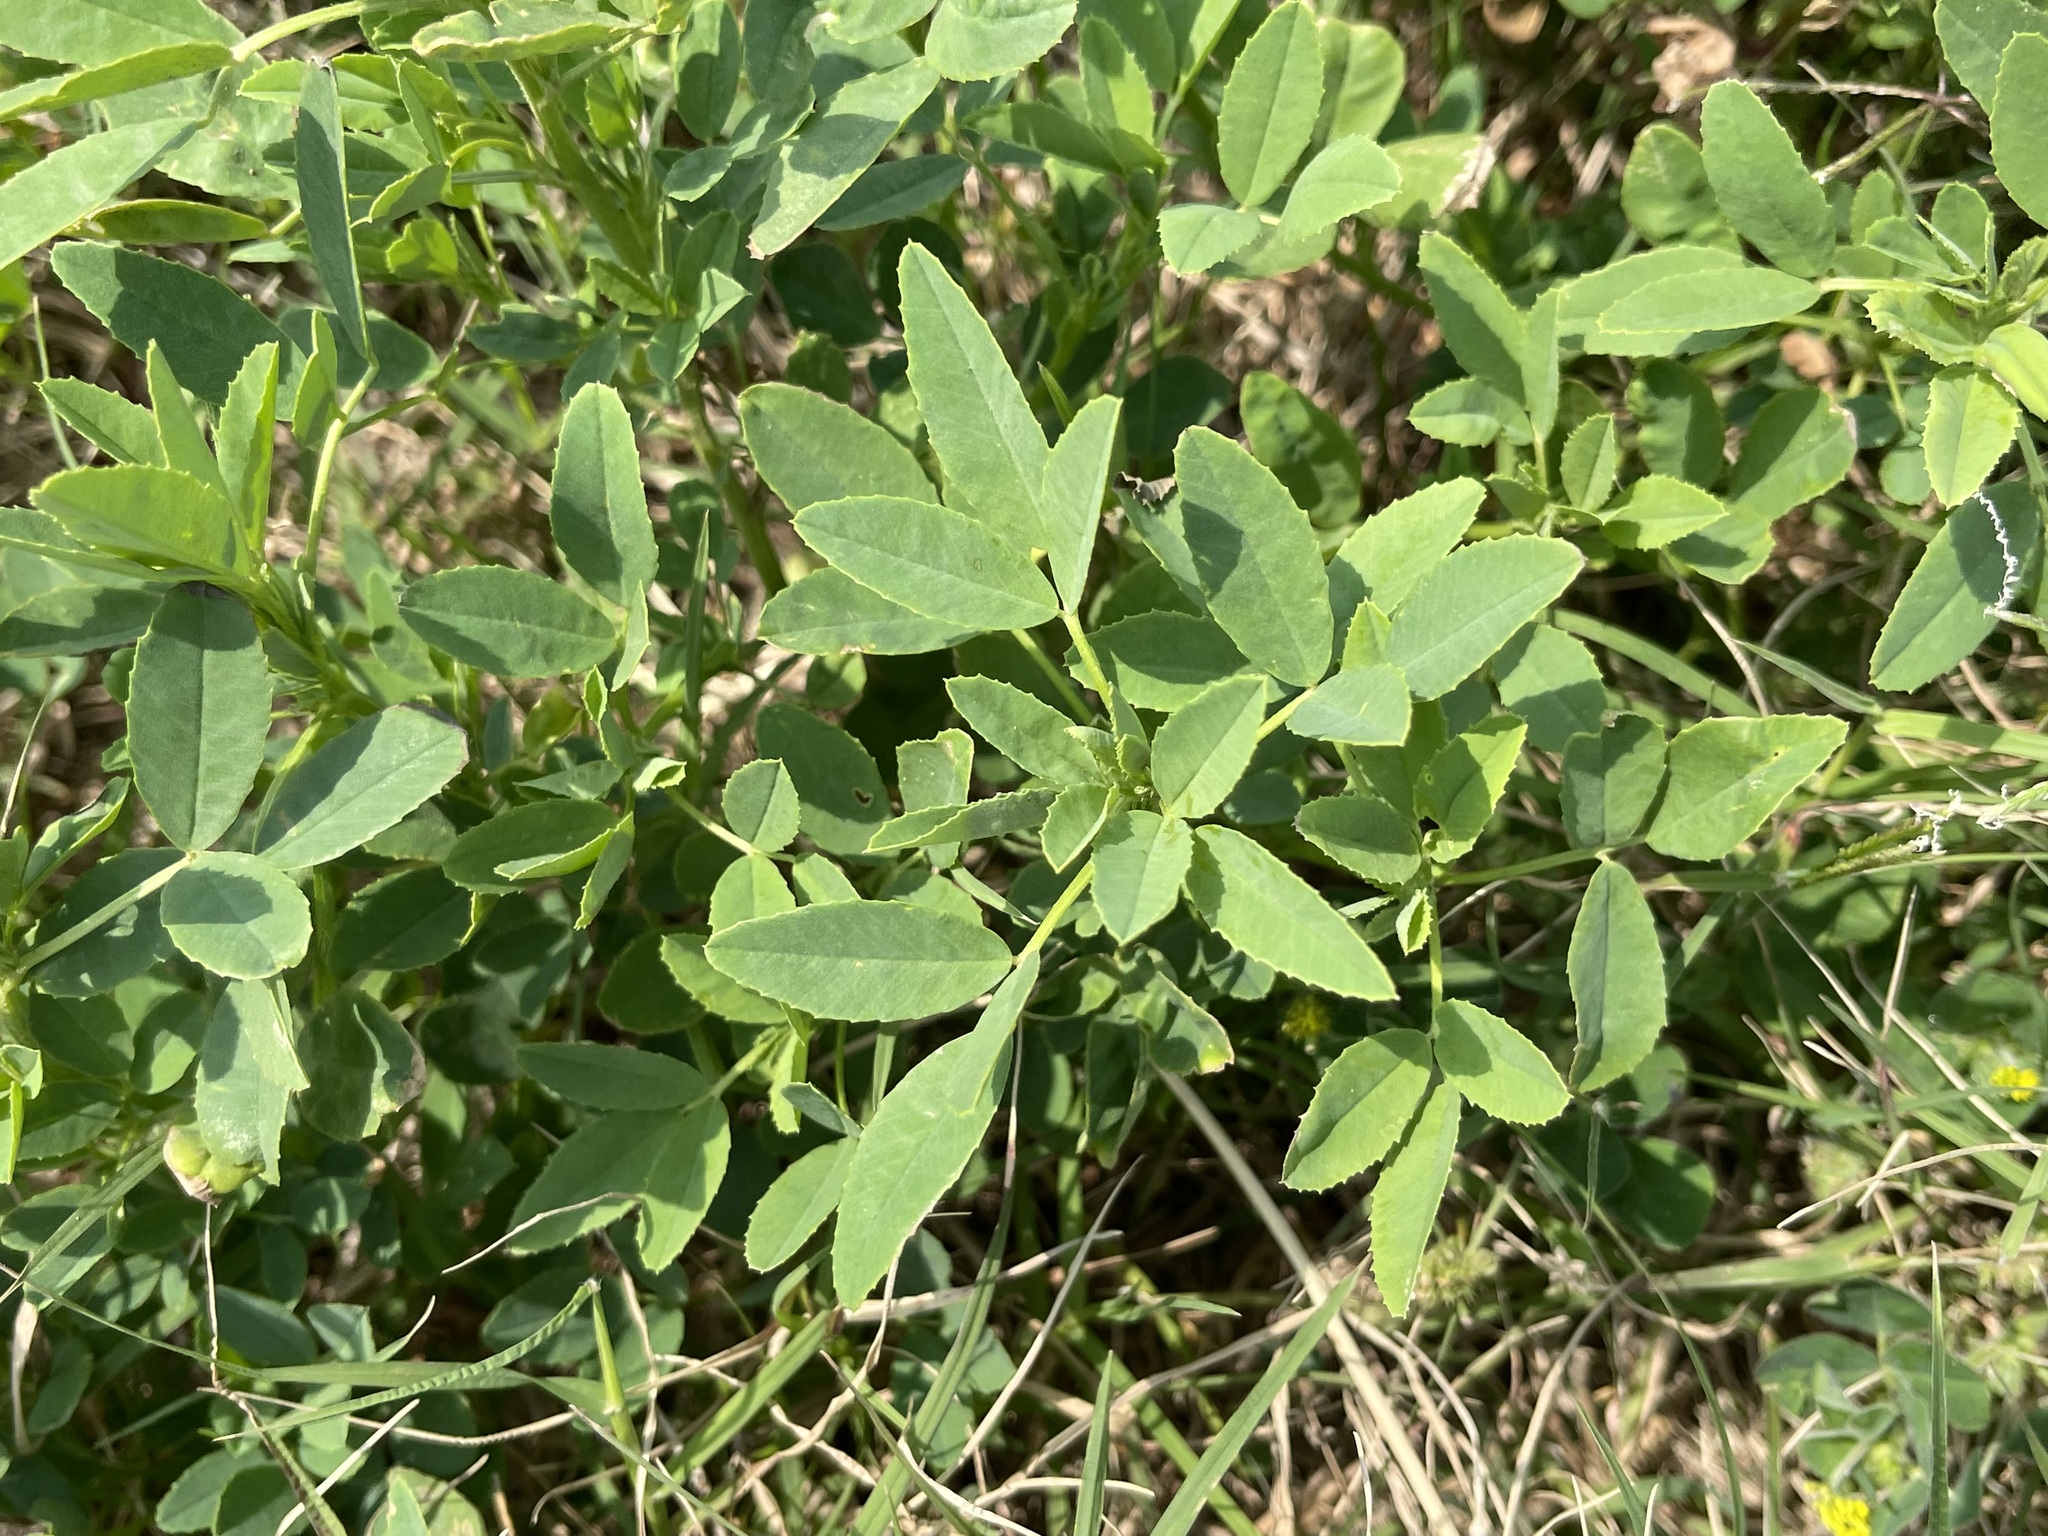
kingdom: Plantae
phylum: Tracheophyta
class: Magnoliopsida
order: Fabales
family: Fabaceae
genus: Melilotus
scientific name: Melilotus indicus
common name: Small melilot
